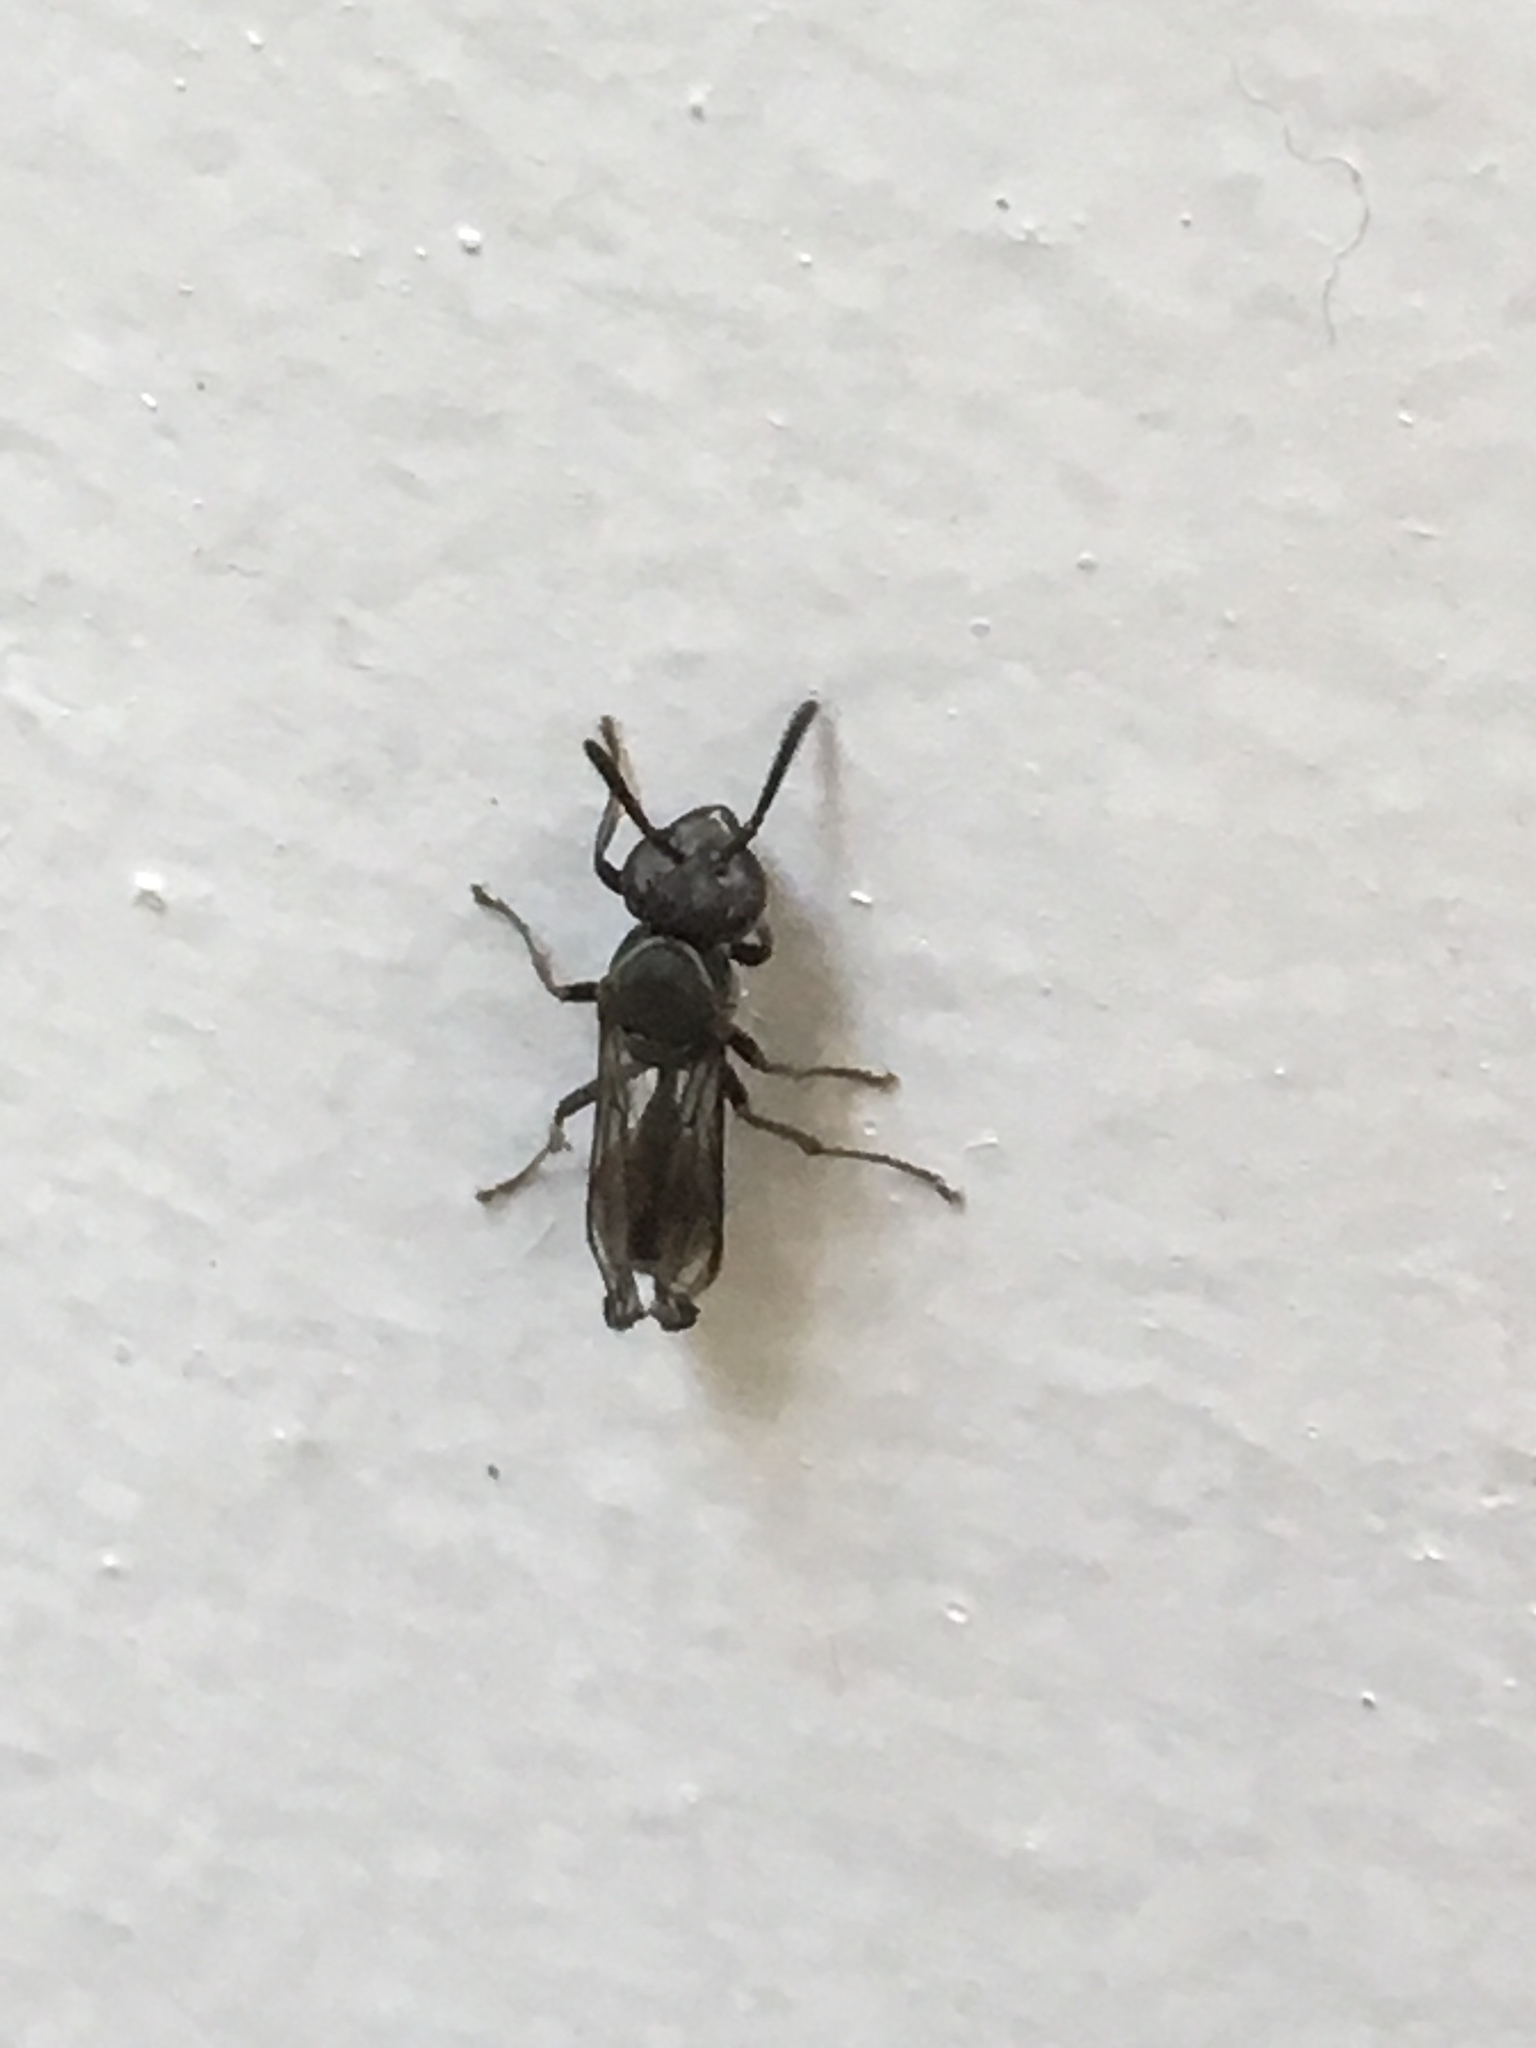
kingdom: Animalia
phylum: Arthropoda
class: Insecta
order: Hymenoptera
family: Eumenidae
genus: Polybia
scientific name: Polybia plebeja
